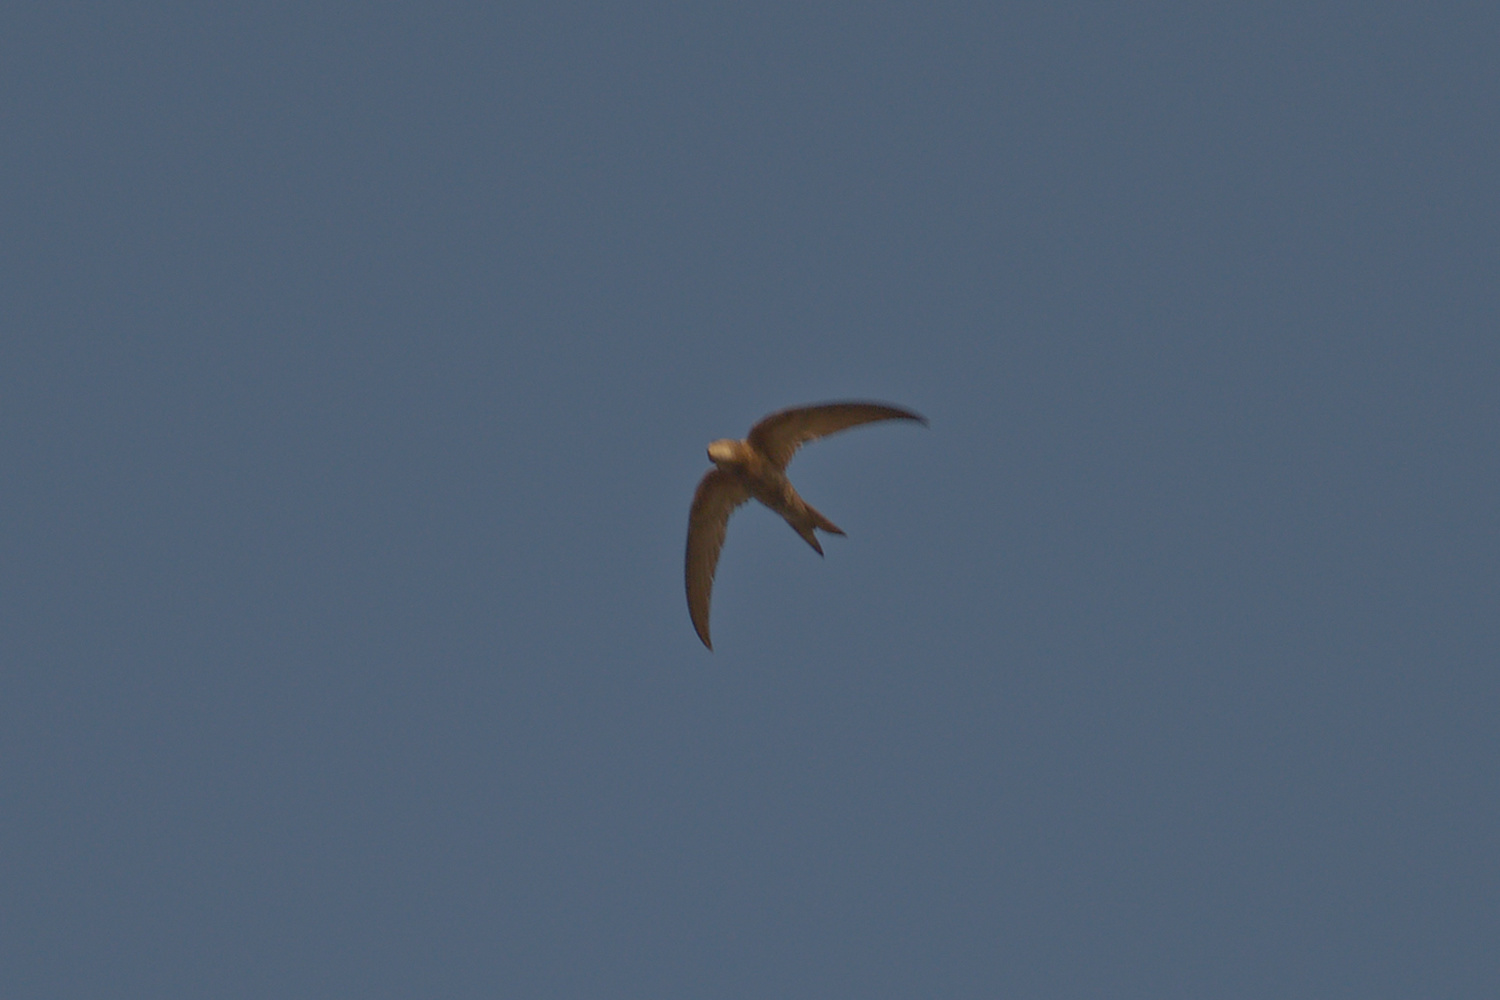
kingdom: Animalia
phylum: Chordata
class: Aves
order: Apodiformes
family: Apodidae
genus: Apus
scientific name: Apus pallidus
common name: Pallid swift
